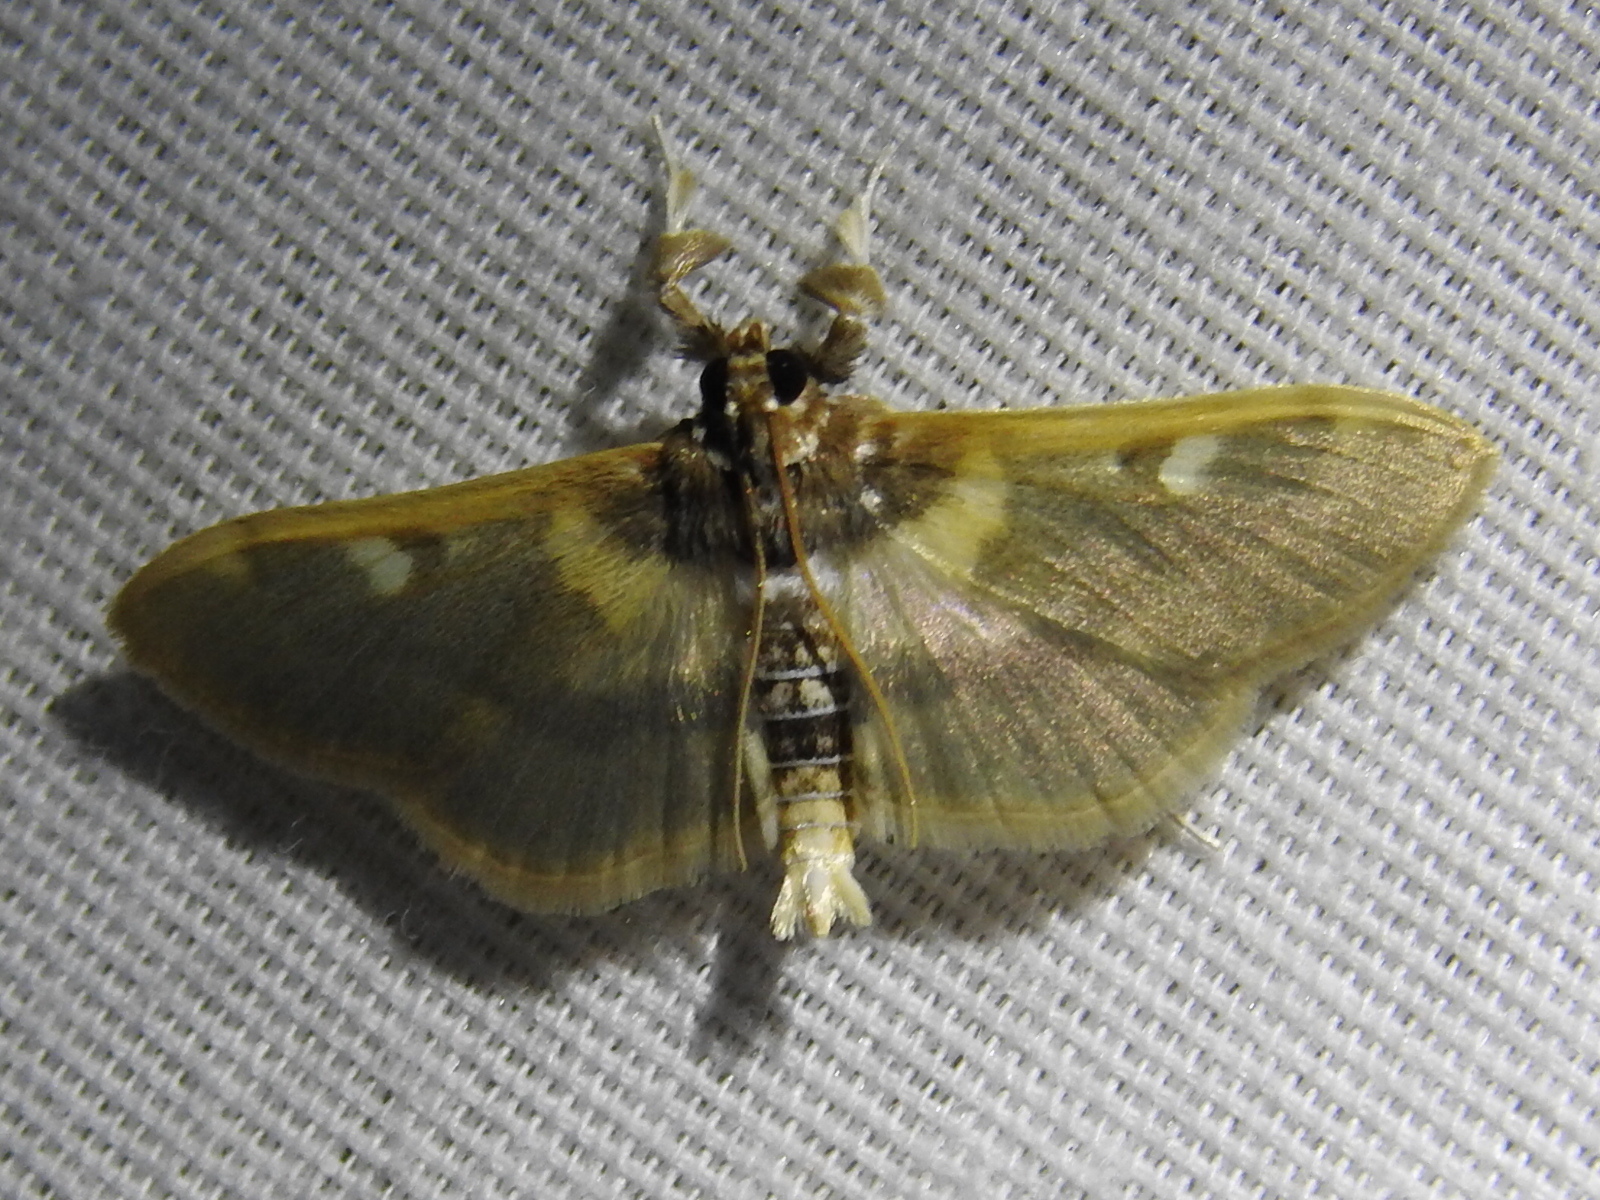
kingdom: Animalia
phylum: Arthropoda
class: Insecta
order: Lepidoptera
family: Crambidae
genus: Apilocrocis
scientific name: Apilocrocis brumalis
